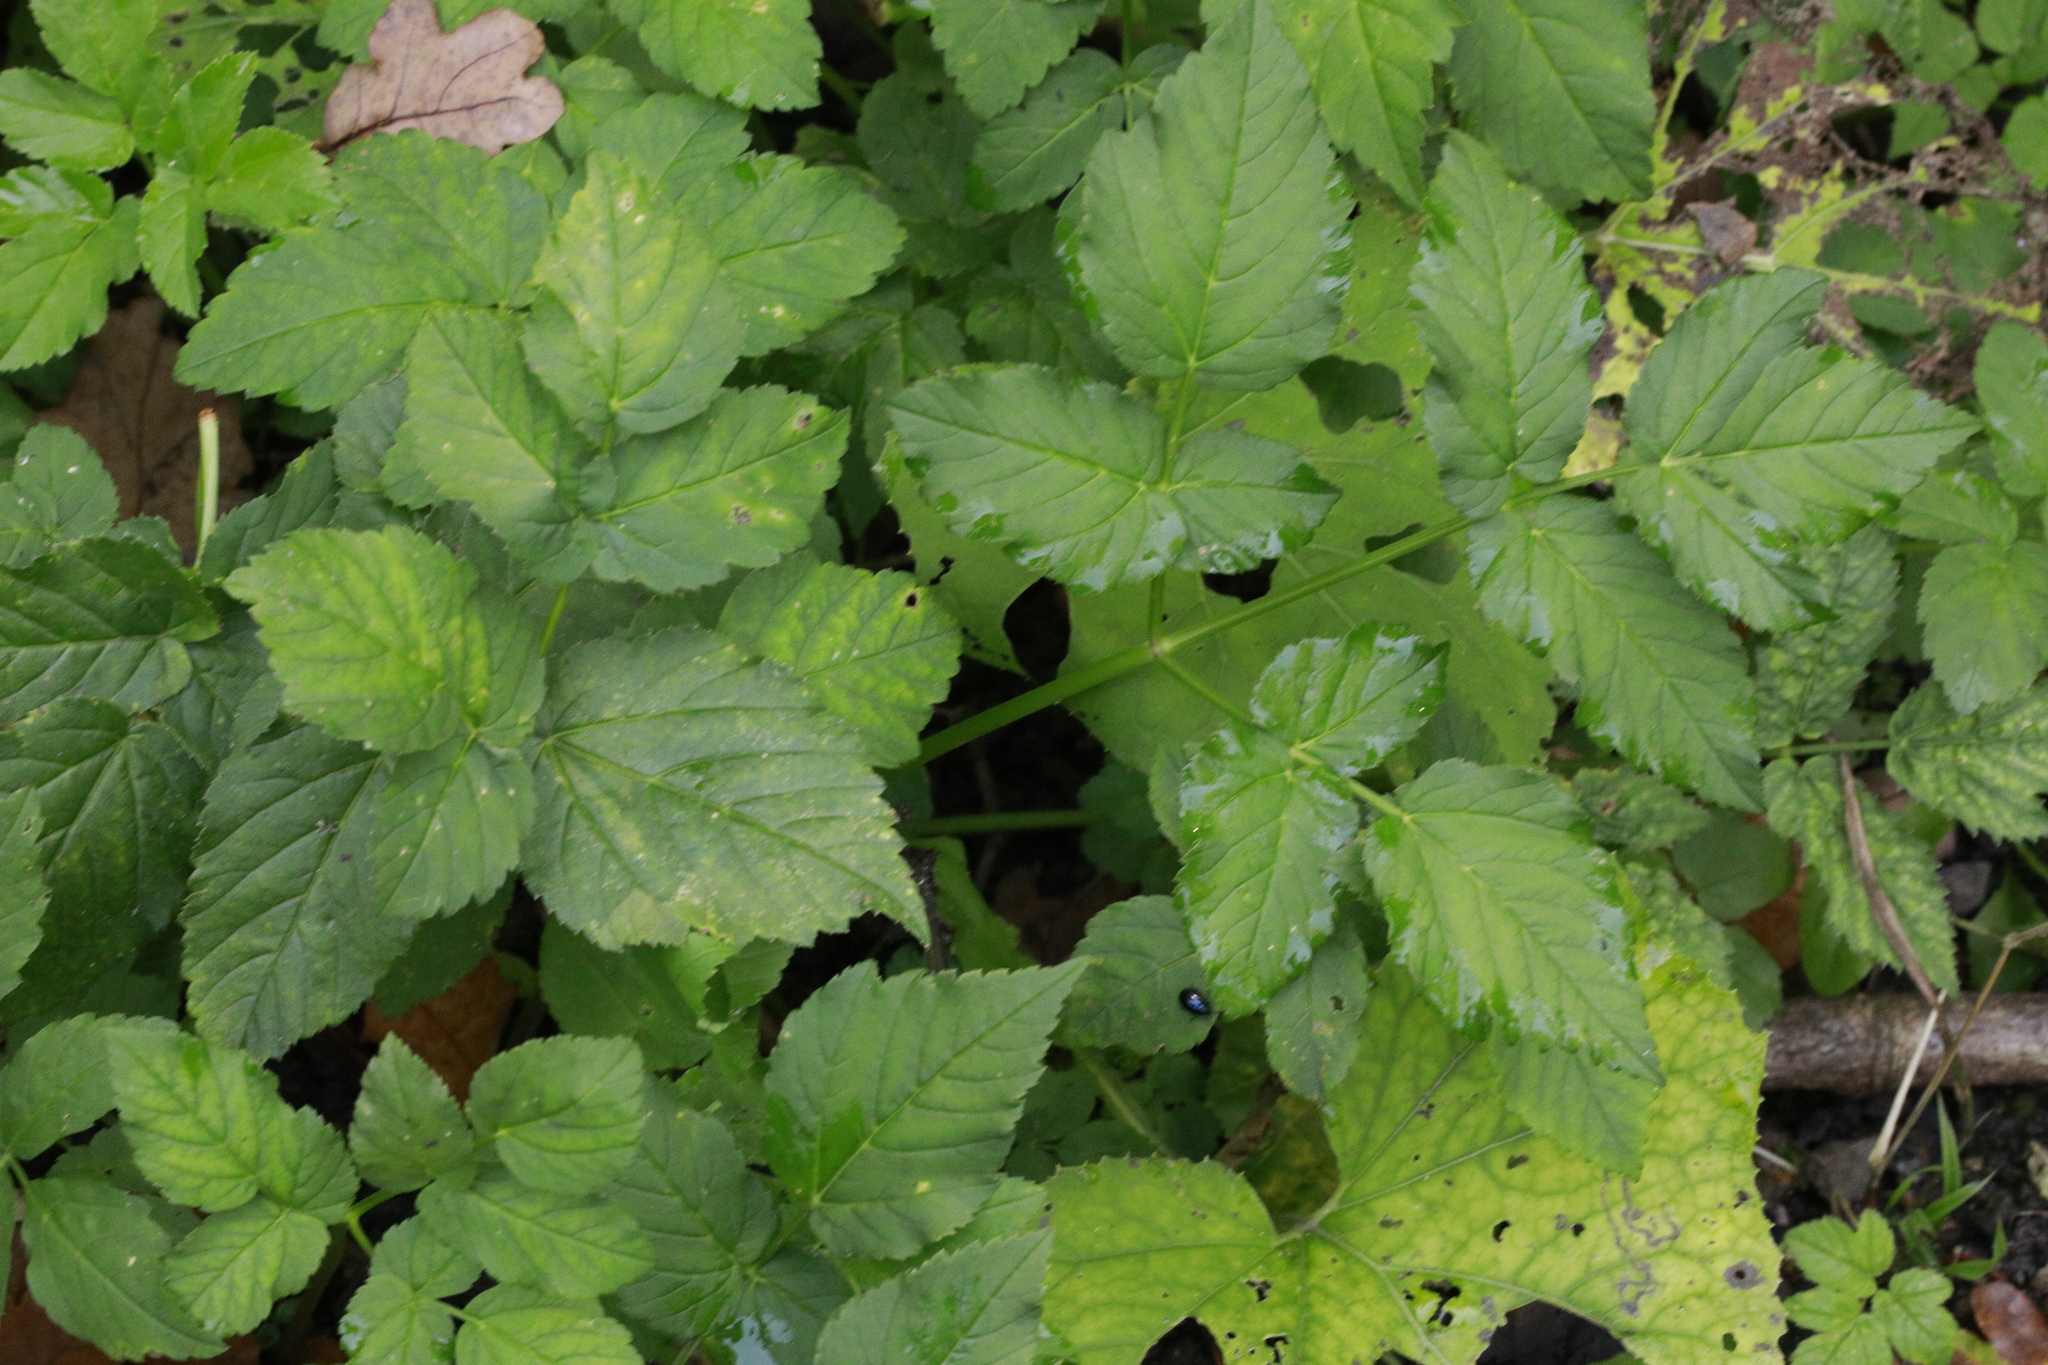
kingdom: Plantae
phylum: Tracheophyta
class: Magnoliopsida
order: Apiales
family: Apiaceae
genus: Aegopodium
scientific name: Aegopodium podagraria
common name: Ground-elder
